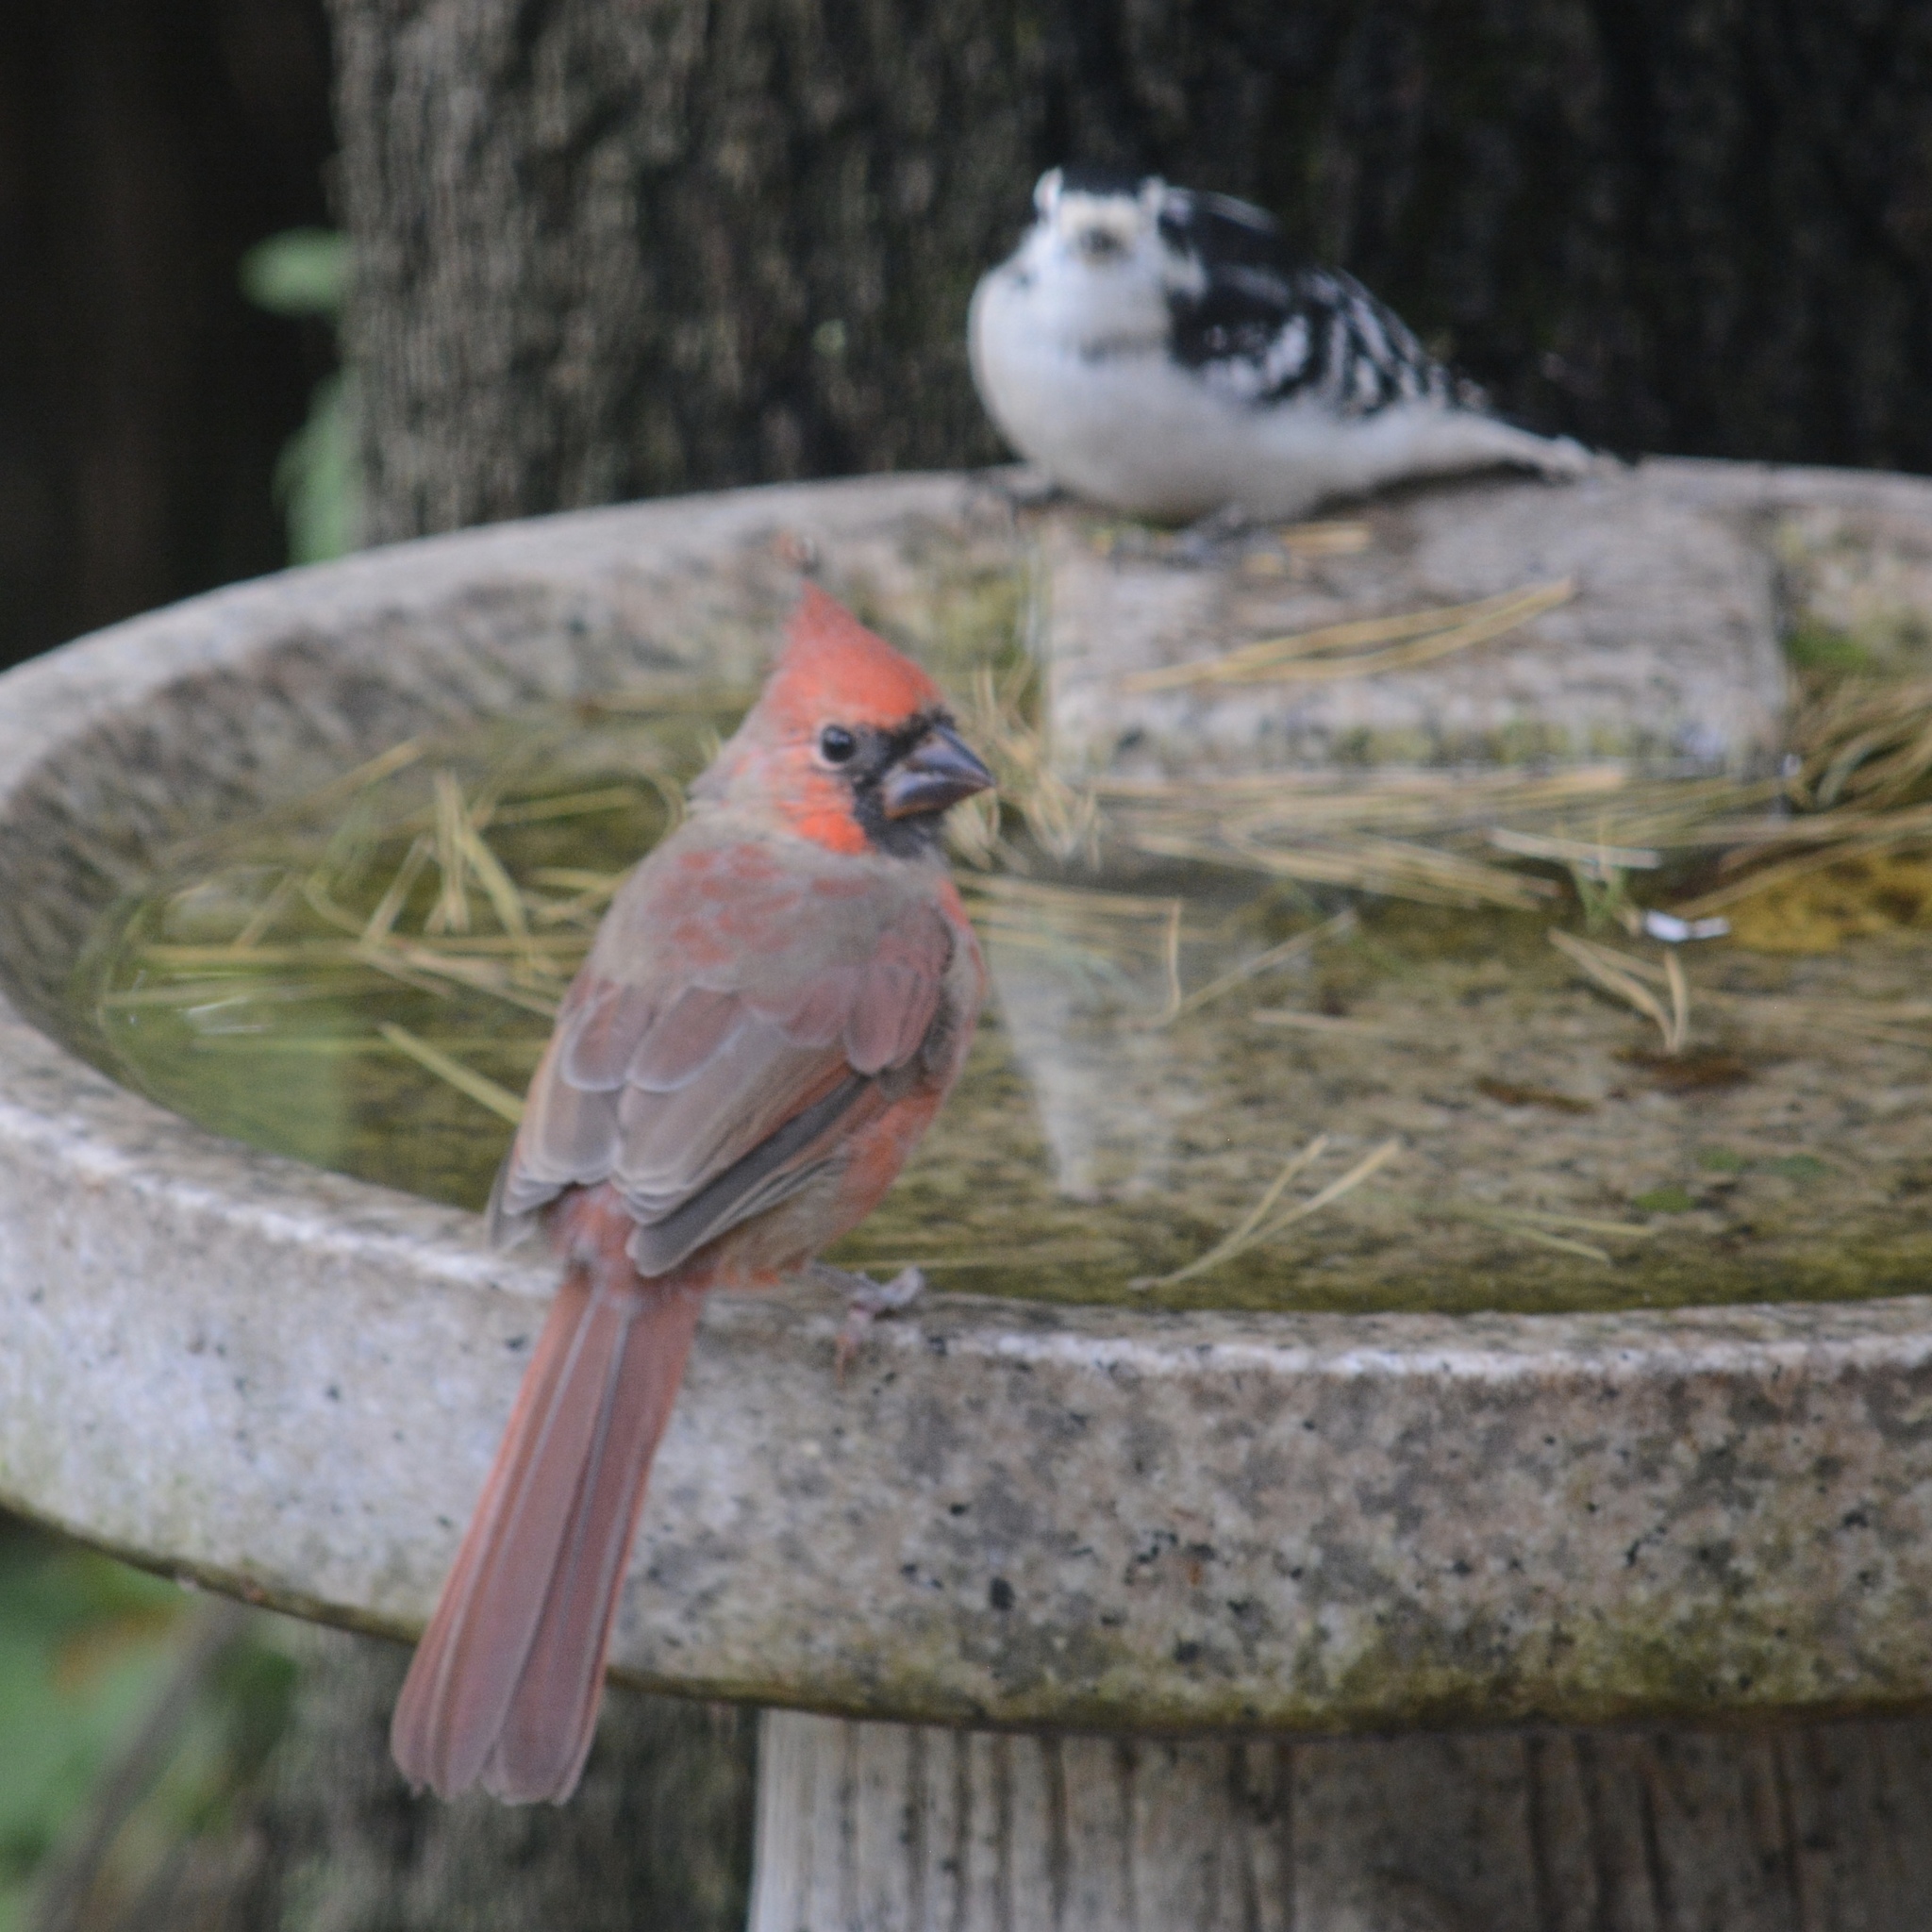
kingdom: Animalia
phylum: Chordata
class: Aves
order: Passeriformes
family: Cardinalidae
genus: Cardinalis
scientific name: Cardinalis cardinalis
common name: Northern cardinal
